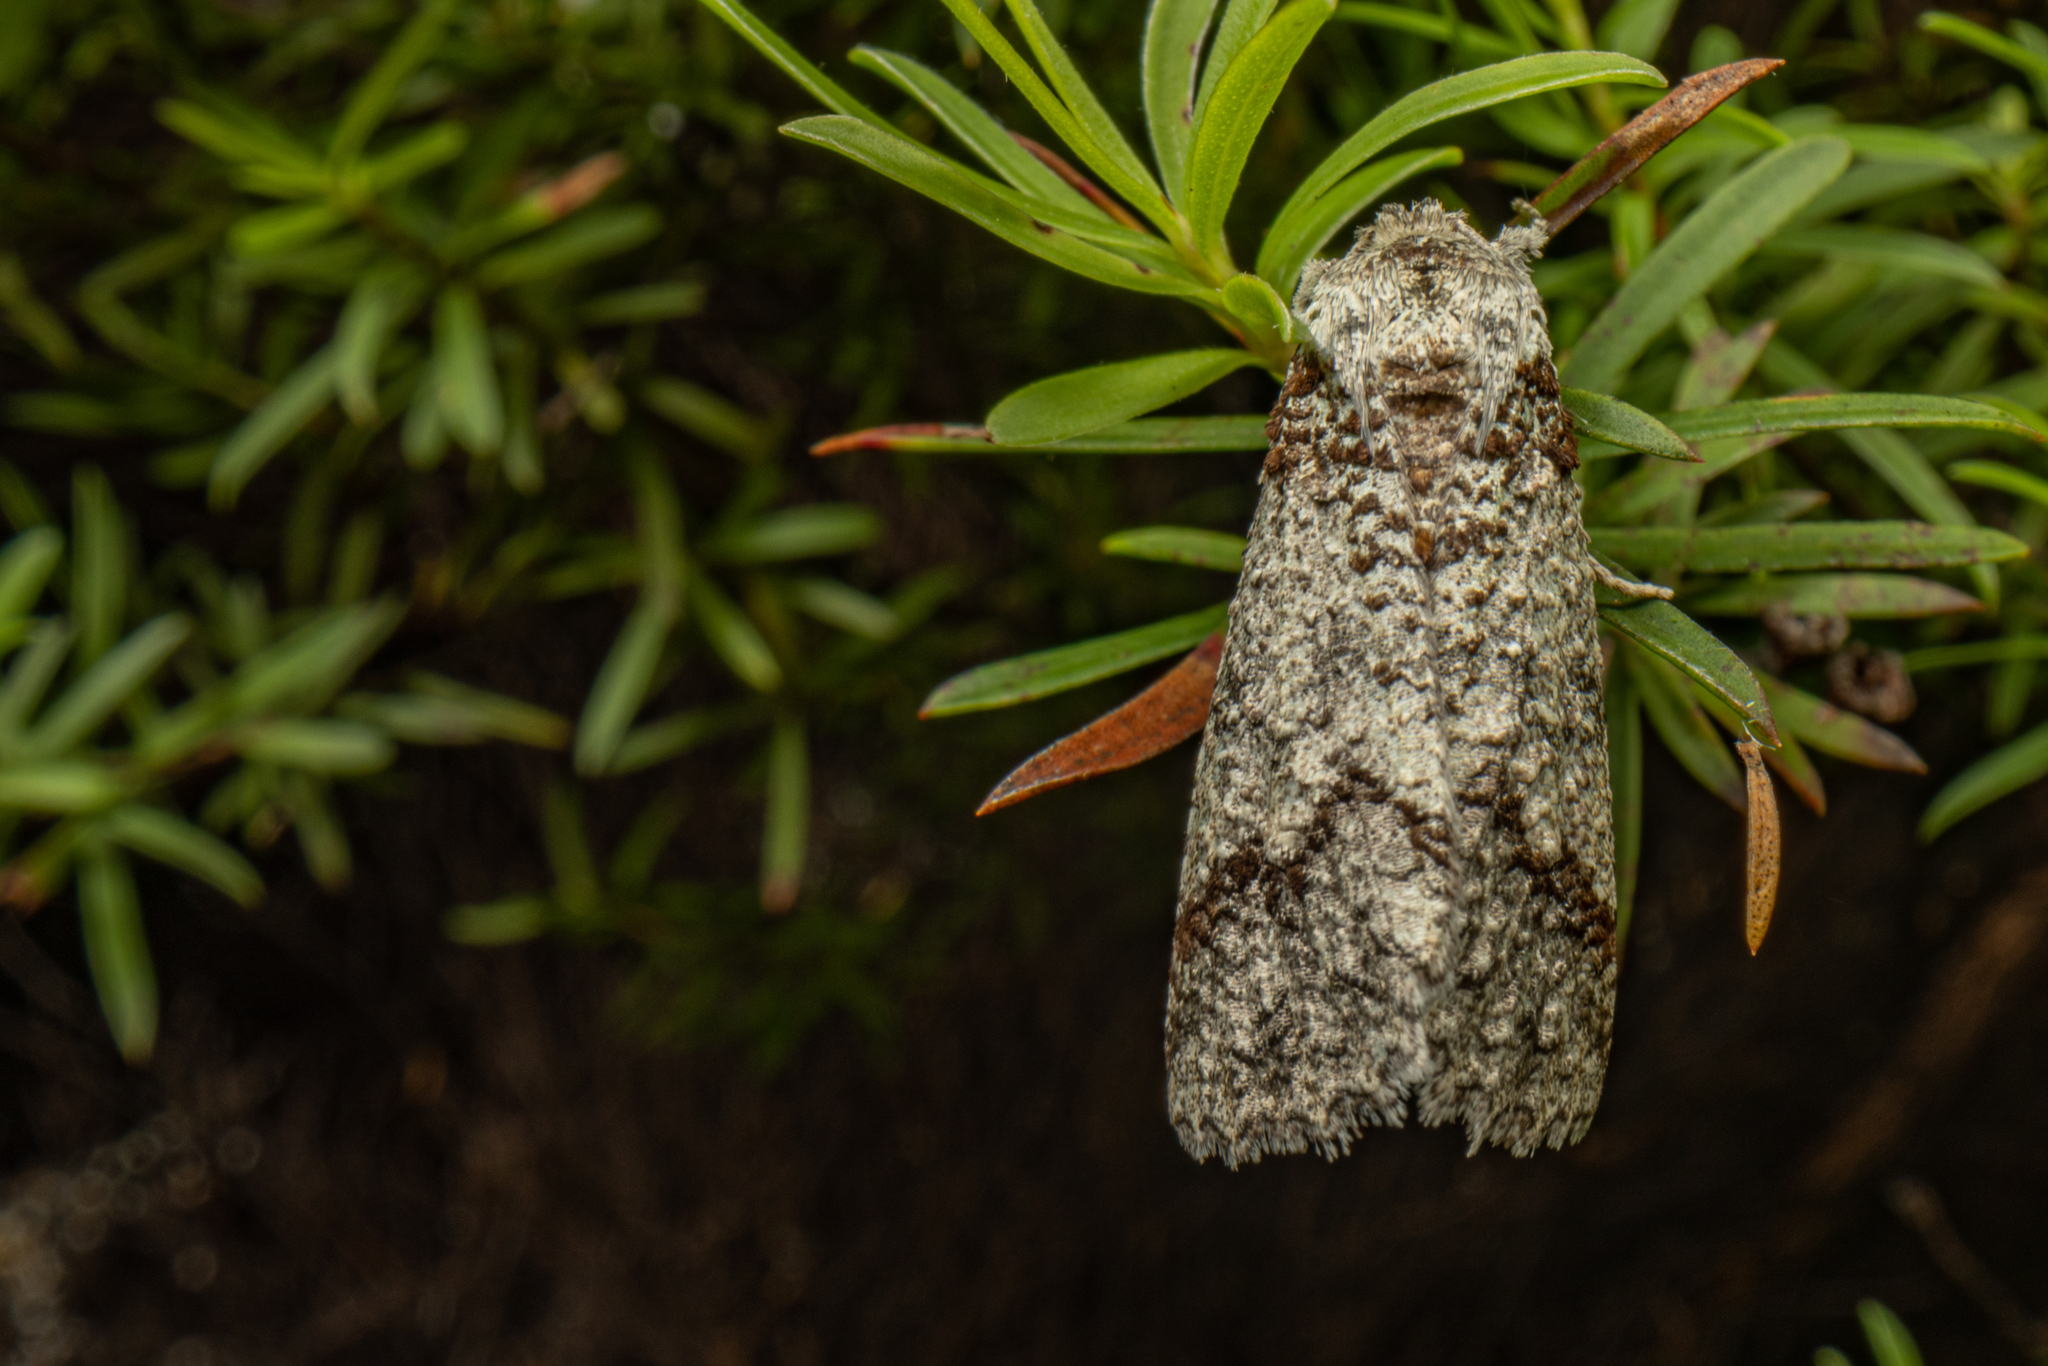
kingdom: Animalia
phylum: Arthropoda
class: Insecta
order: Lepidoptera
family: Geometridae
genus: Declana
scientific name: Declana floccosa
